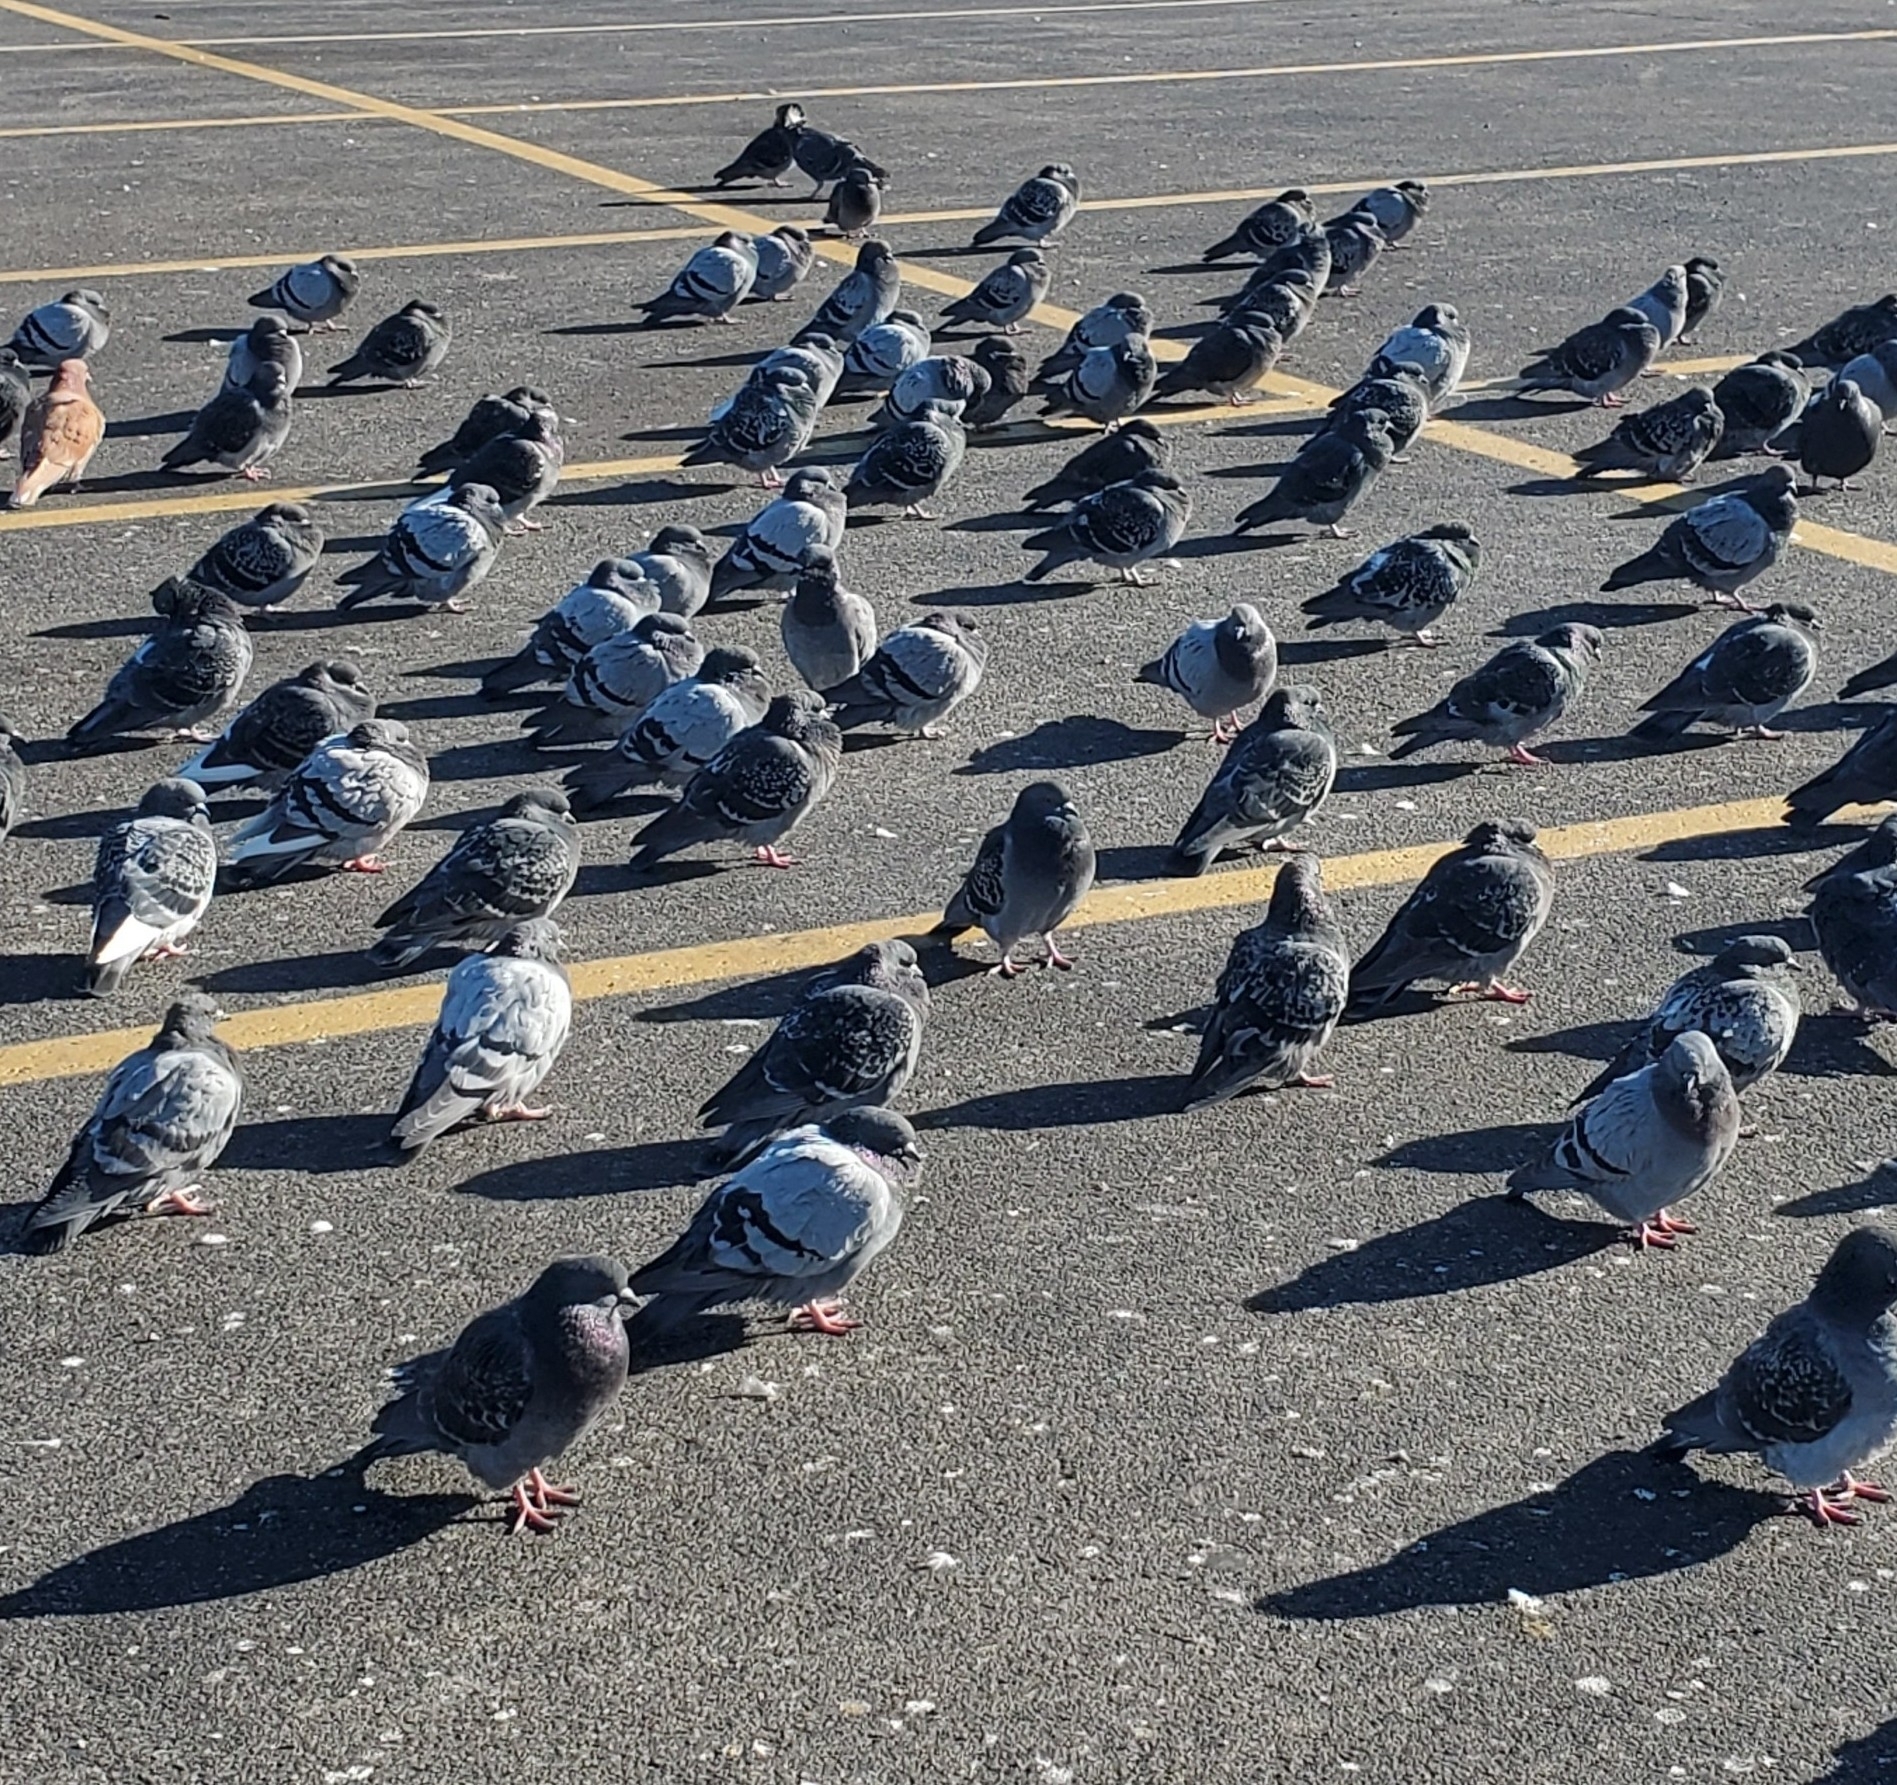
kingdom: Animalia
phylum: Chordata
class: Aves
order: Columbiformes
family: Columbidae
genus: Columba
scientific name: Columba livia
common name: Rock pigeon
